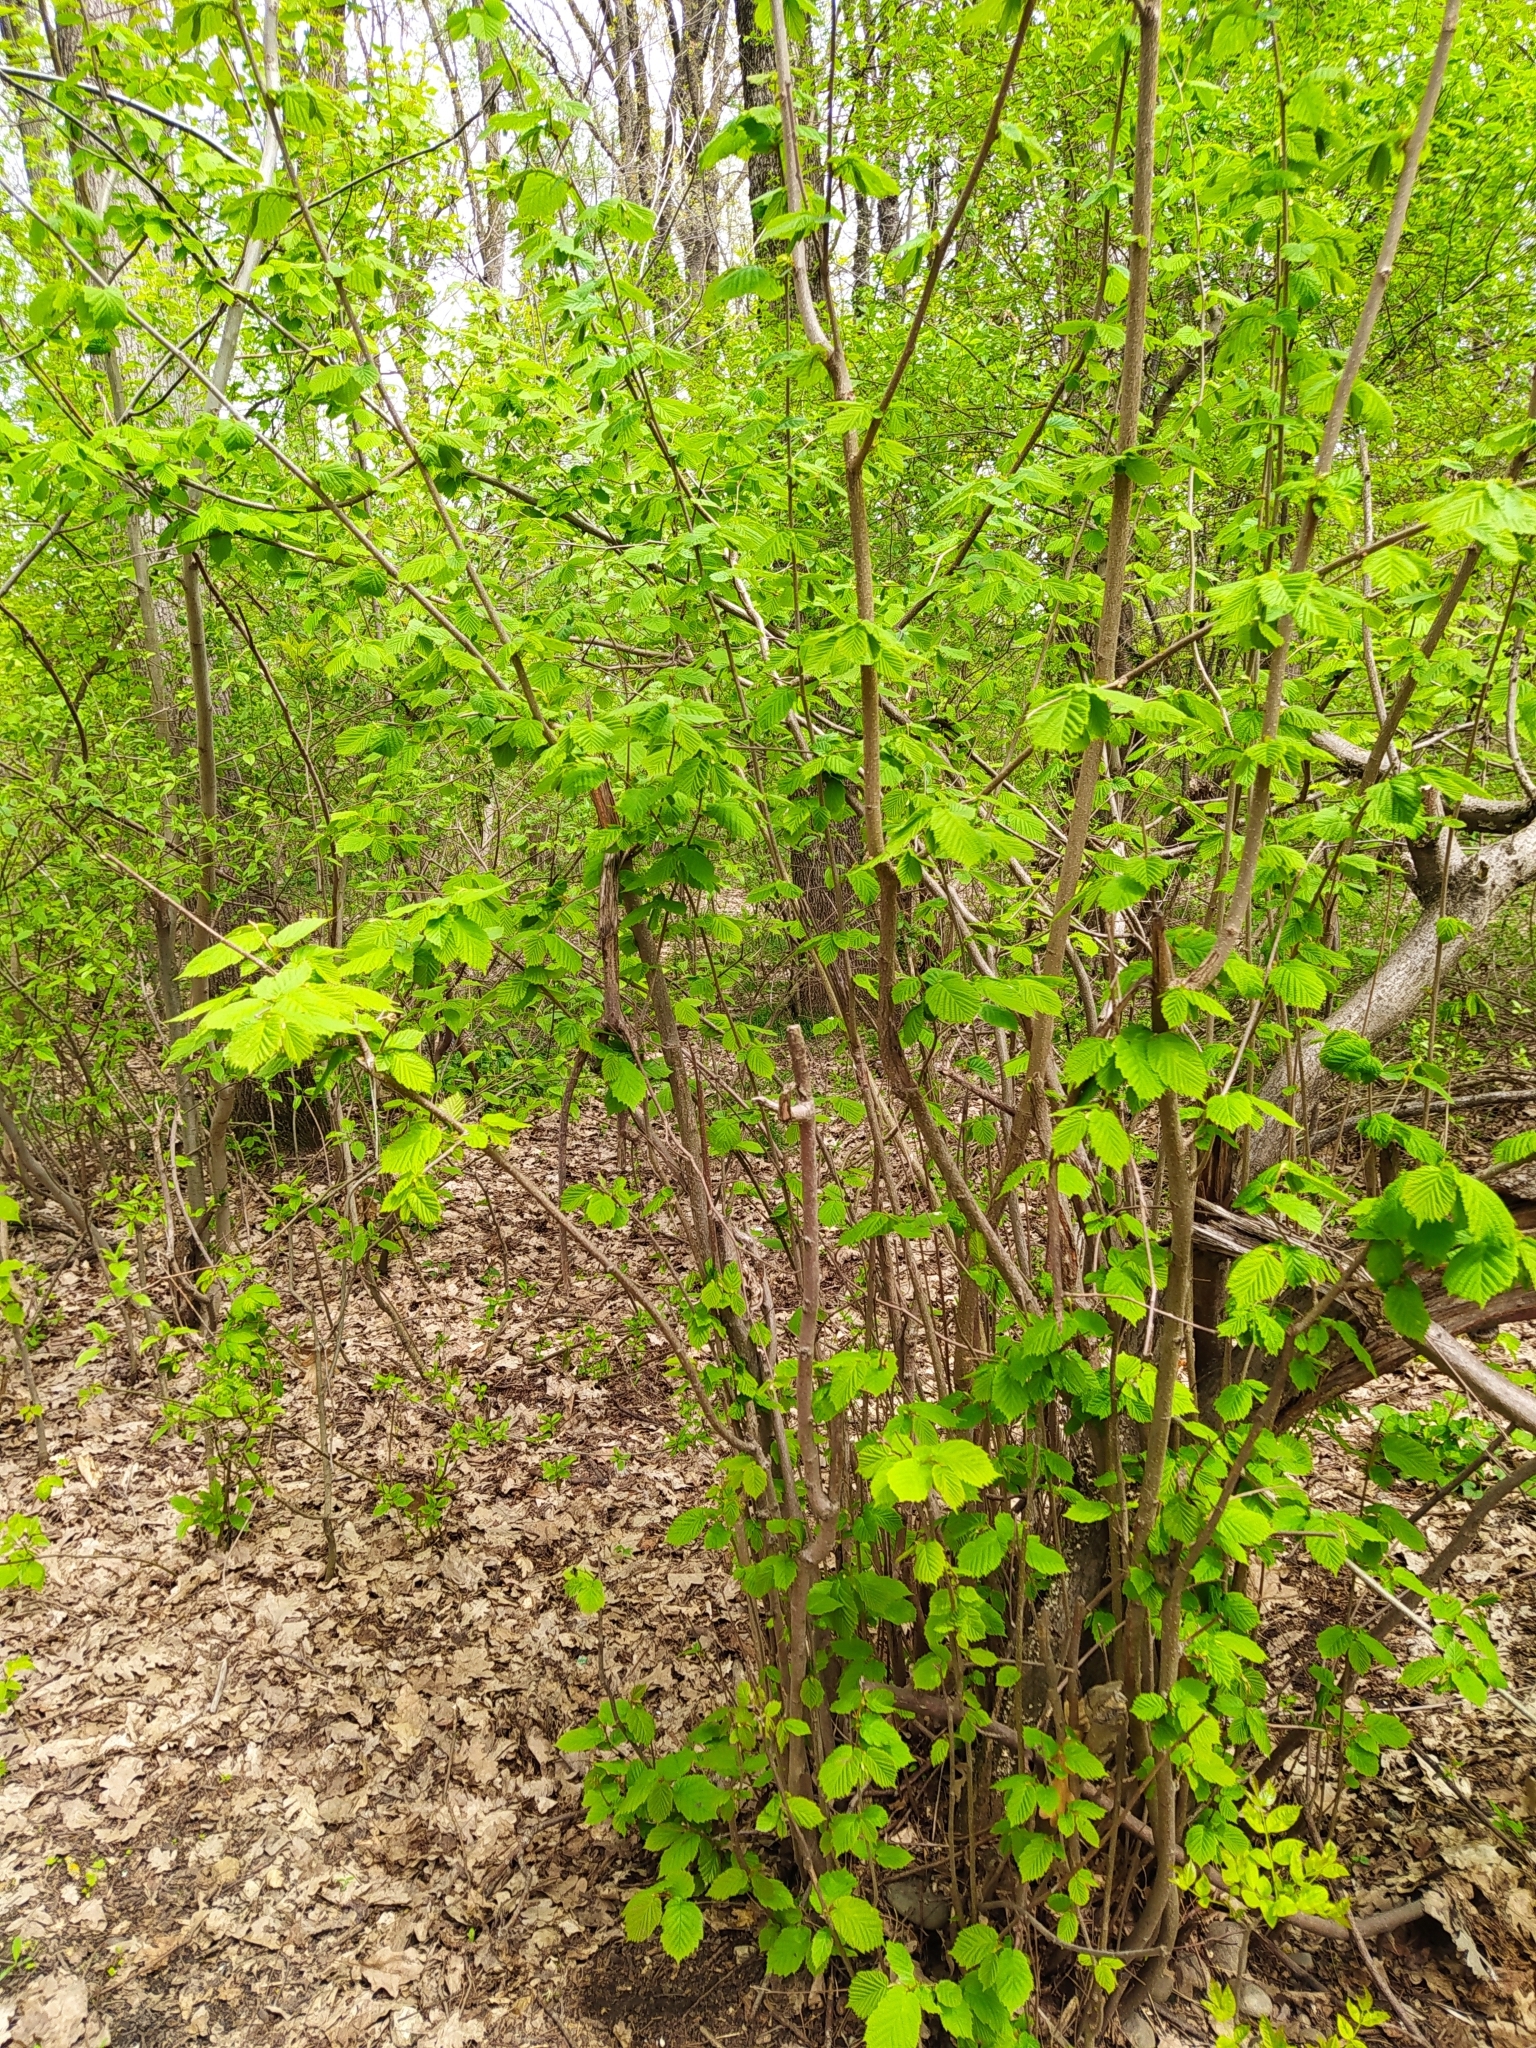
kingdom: Plantae
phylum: Tracheophyta
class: Magnoliopsida
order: Fagales
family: Betulaceae
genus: Corylus
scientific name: Corylus avellana
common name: European hazel
